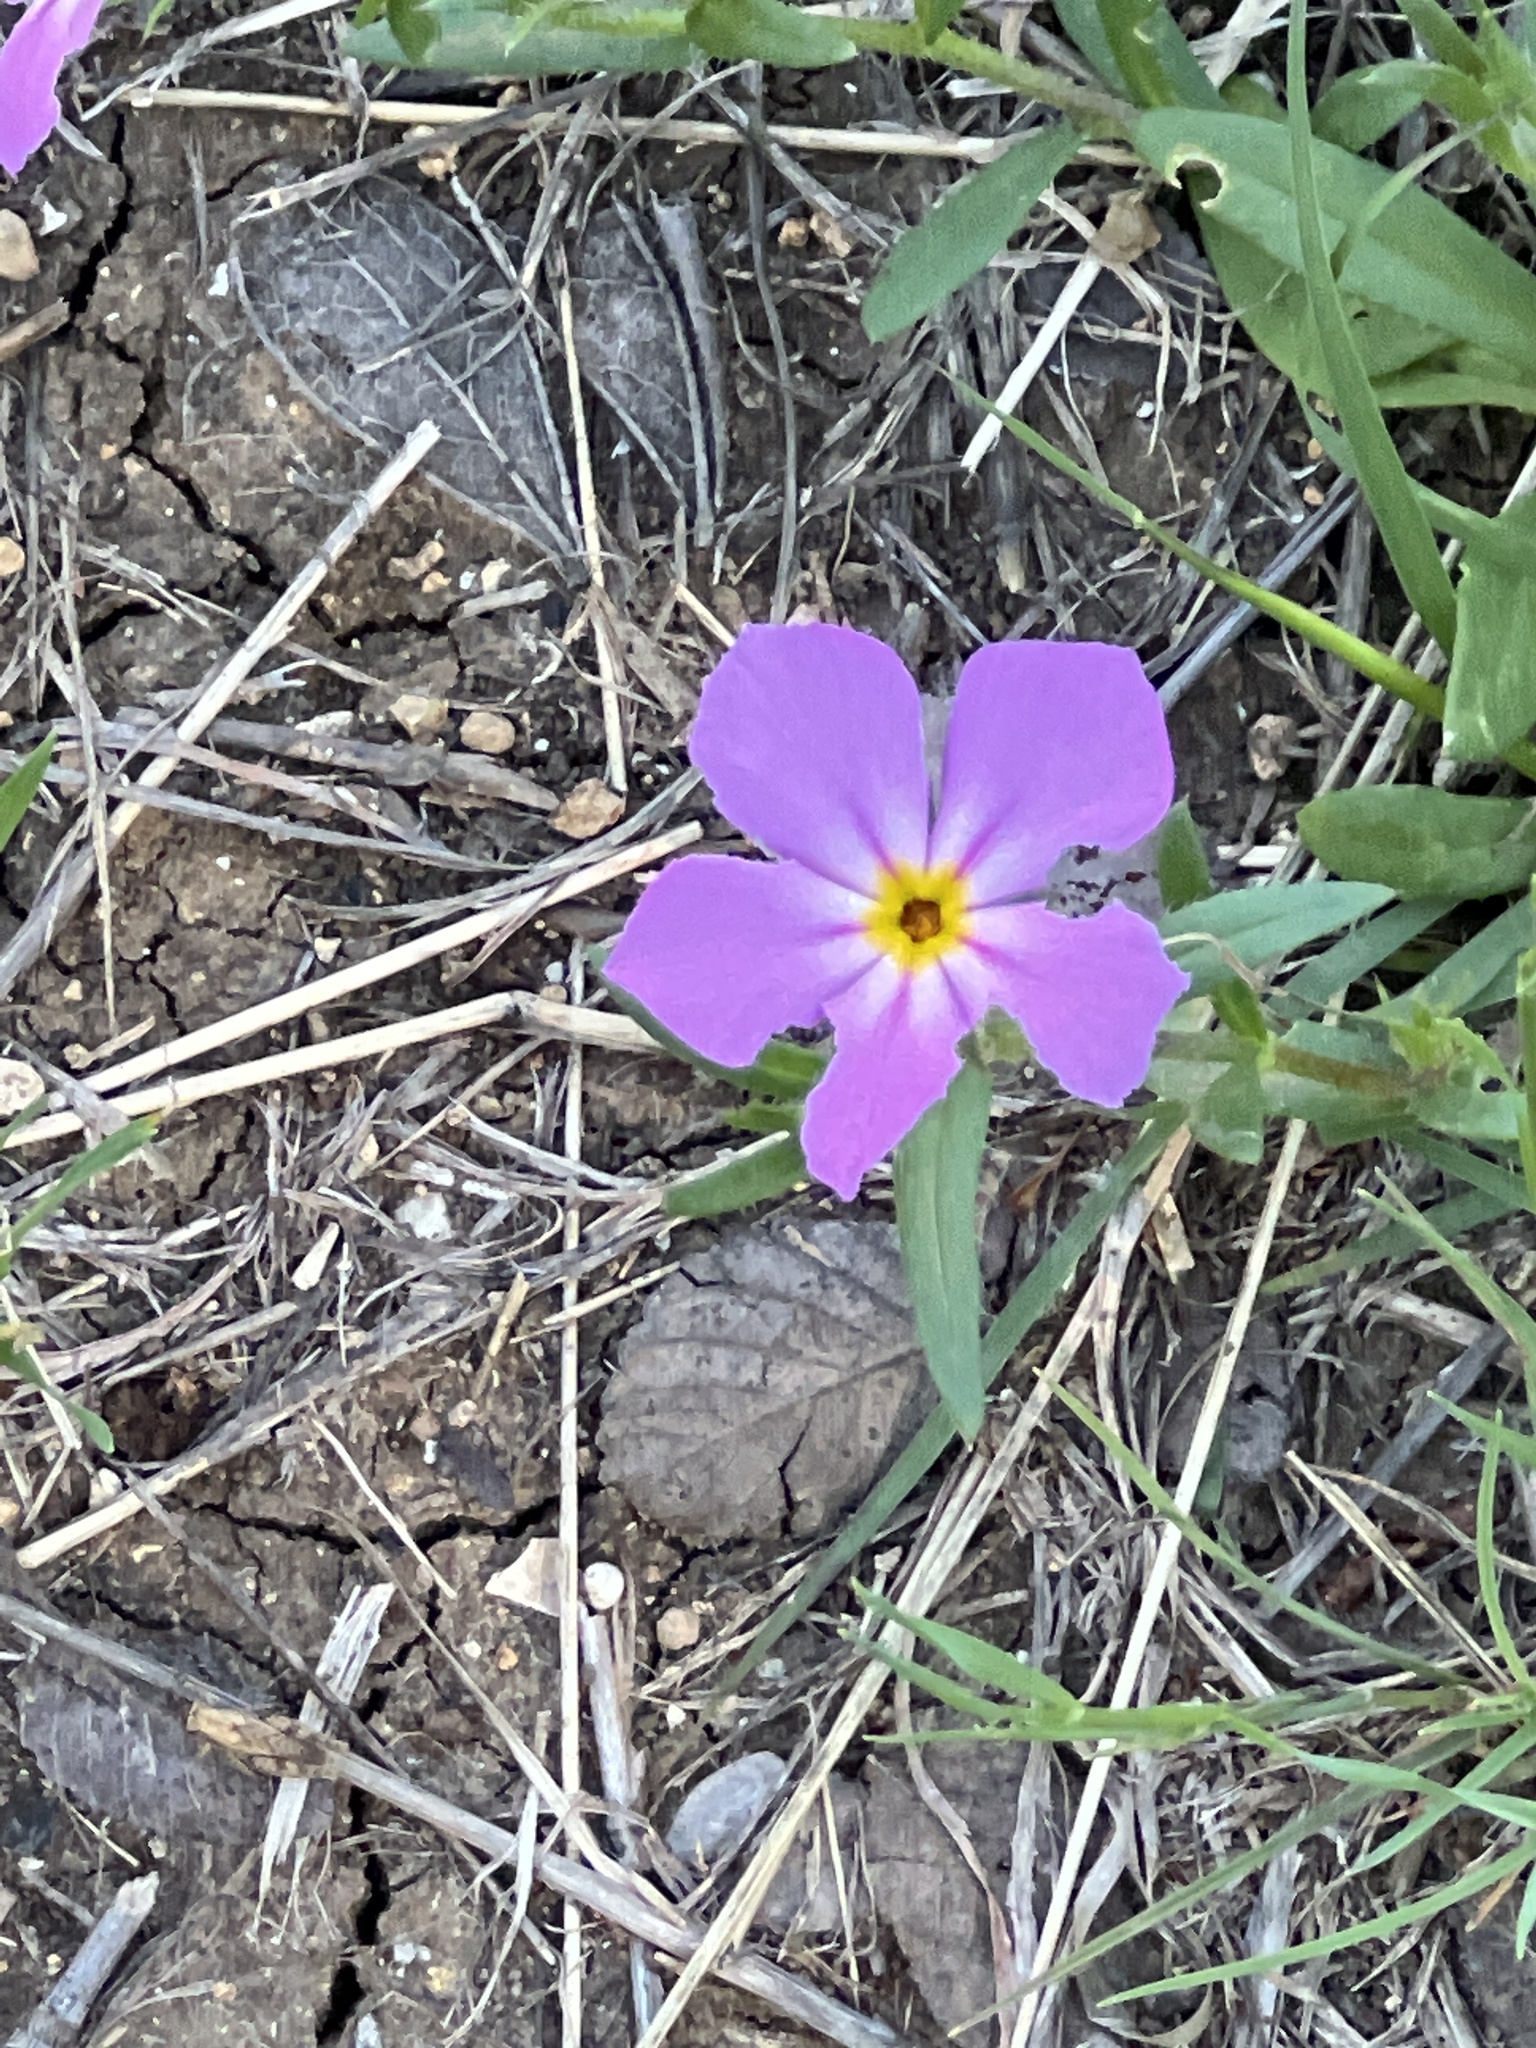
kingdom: Plantae
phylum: Tracheophyta
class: Magnoliopsida
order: Ericales
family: Polemoniaceae
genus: Phlox
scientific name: Phlox roemeriana
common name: Roemer's phlox
